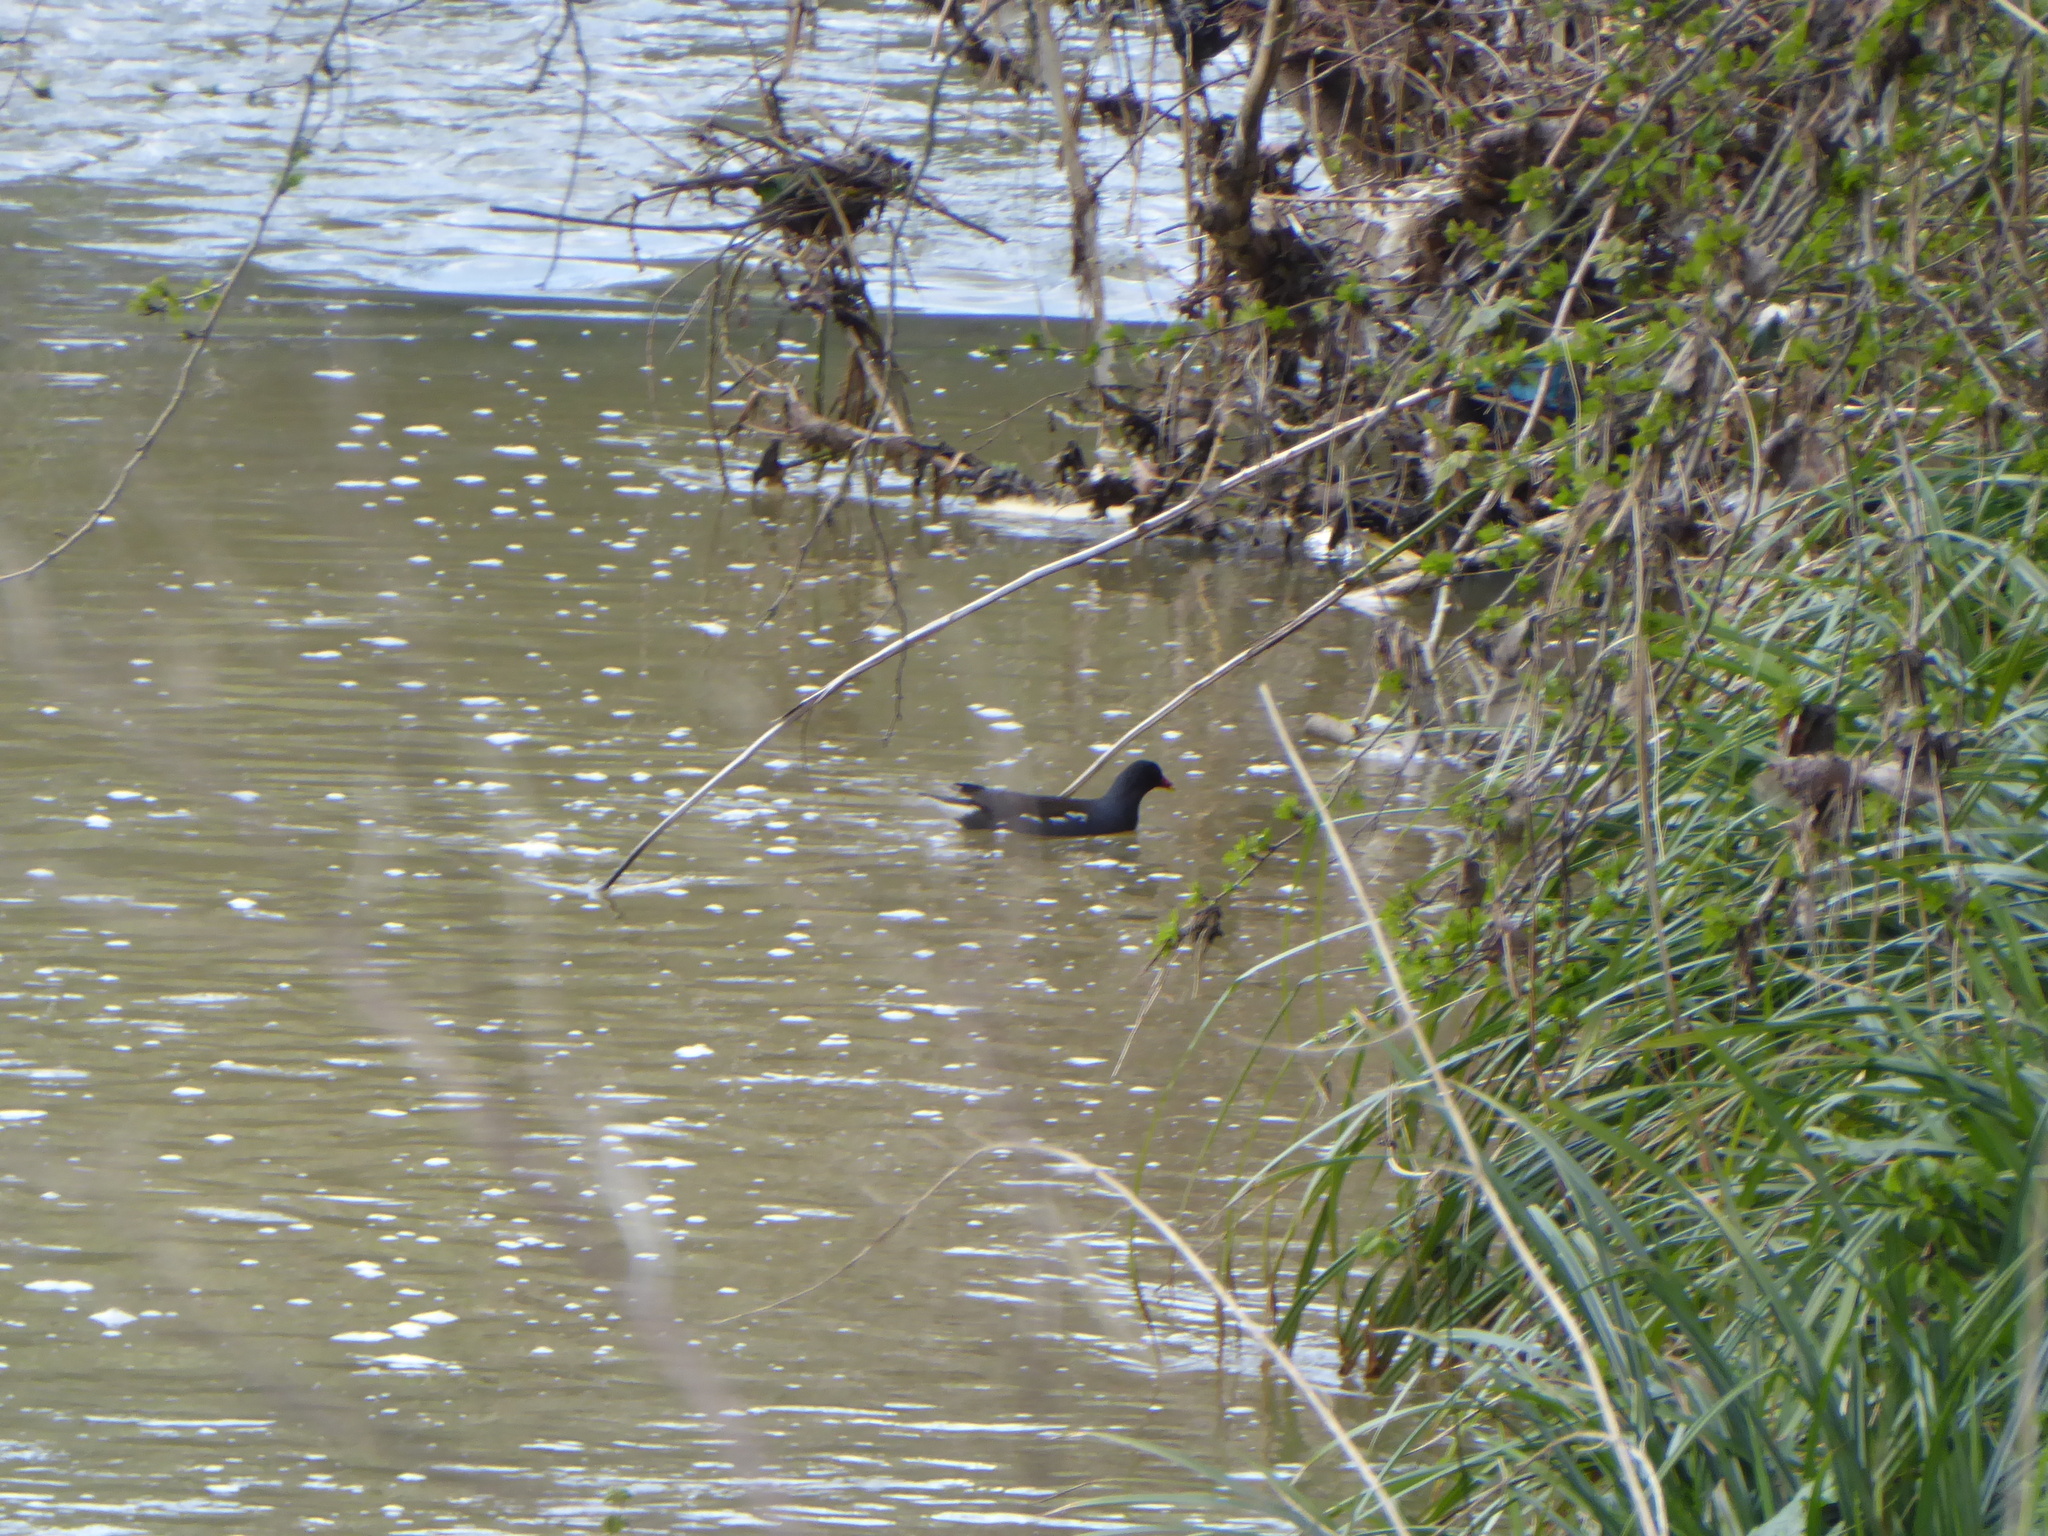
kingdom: Animalia
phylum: Chordata
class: Aves
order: Gruiformes
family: Rallidae
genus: Gallinula
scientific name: Gallinula chloropus
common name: Common moorhen
